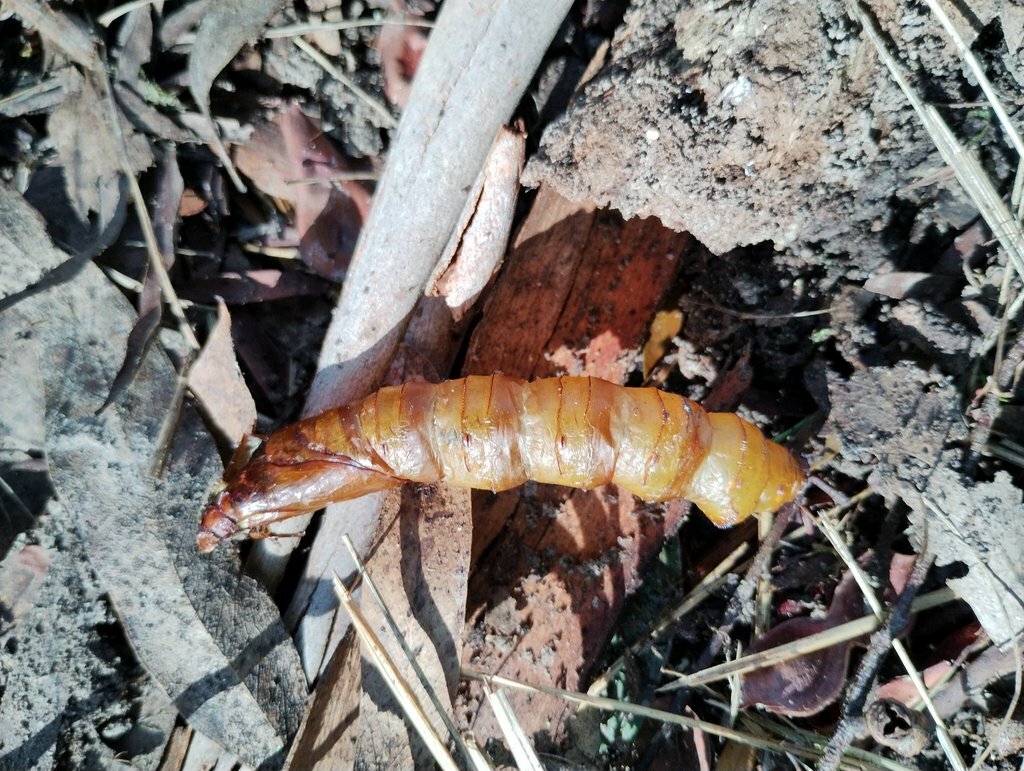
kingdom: Animalia
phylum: Arthropoda
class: Insecta
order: Lepidoptera
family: Hepialidae
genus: Abantiades
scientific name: Abantiades atripalpis
